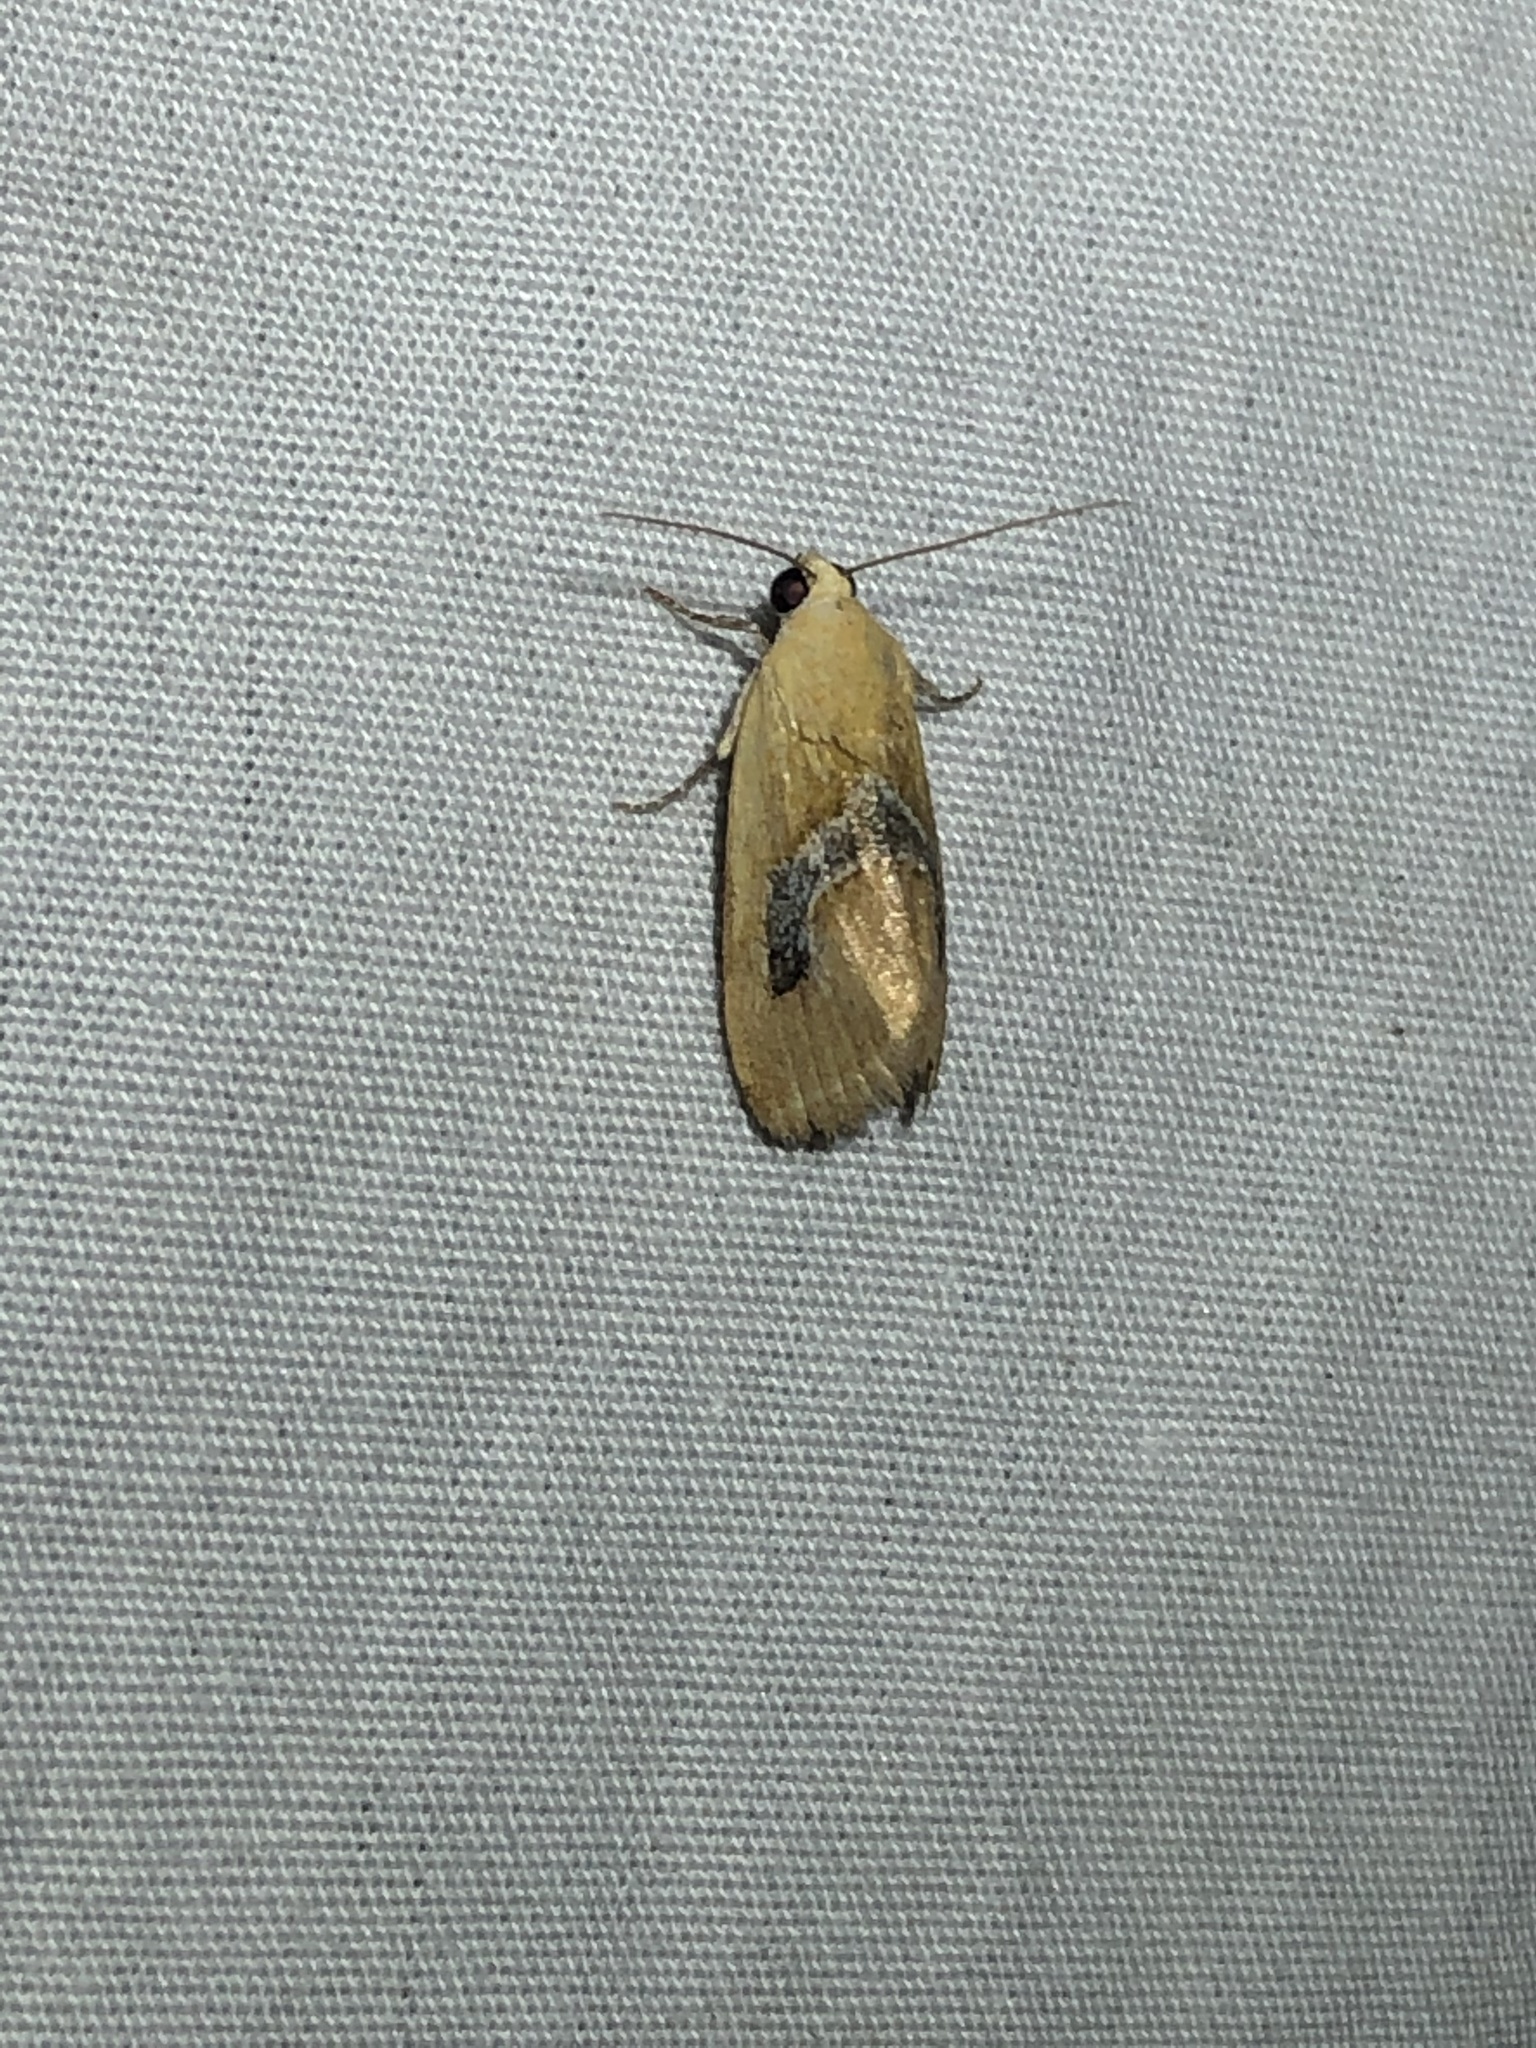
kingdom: Animalia
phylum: Arthropoda
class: Insecta
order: Lepidoptera
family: Noctuidae
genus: Ponometia
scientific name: Ponometia venustula
